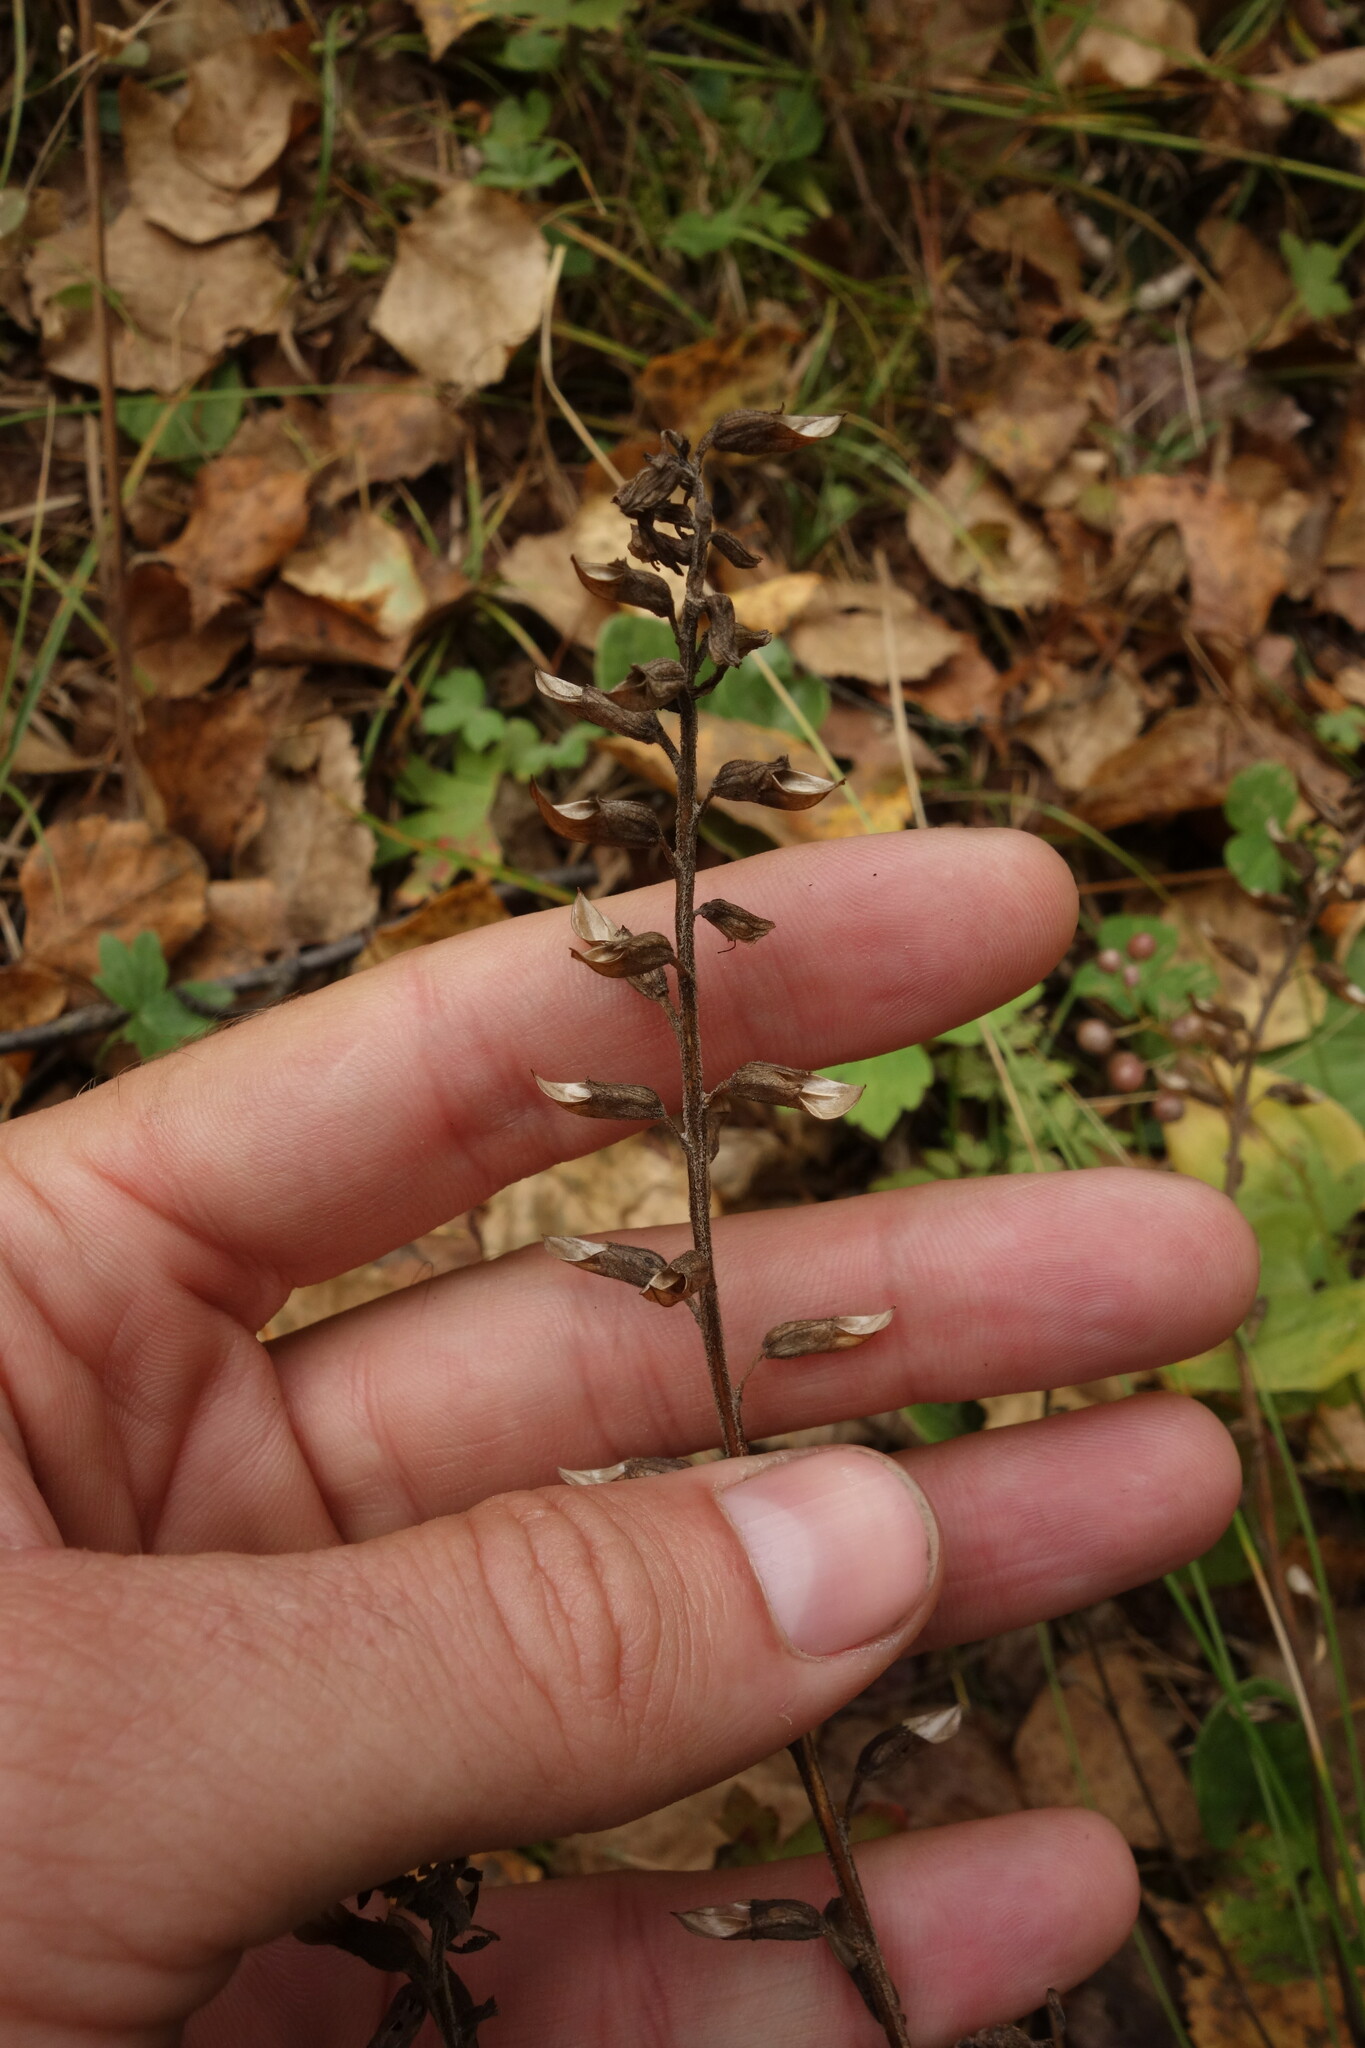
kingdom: Plantae
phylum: Tracheophyta
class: Magnoliopsida
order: Lamiales
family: Orobanchaceae
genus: Pedicularis
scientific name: Pedicularis labradorica
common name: Labrador lousewort
